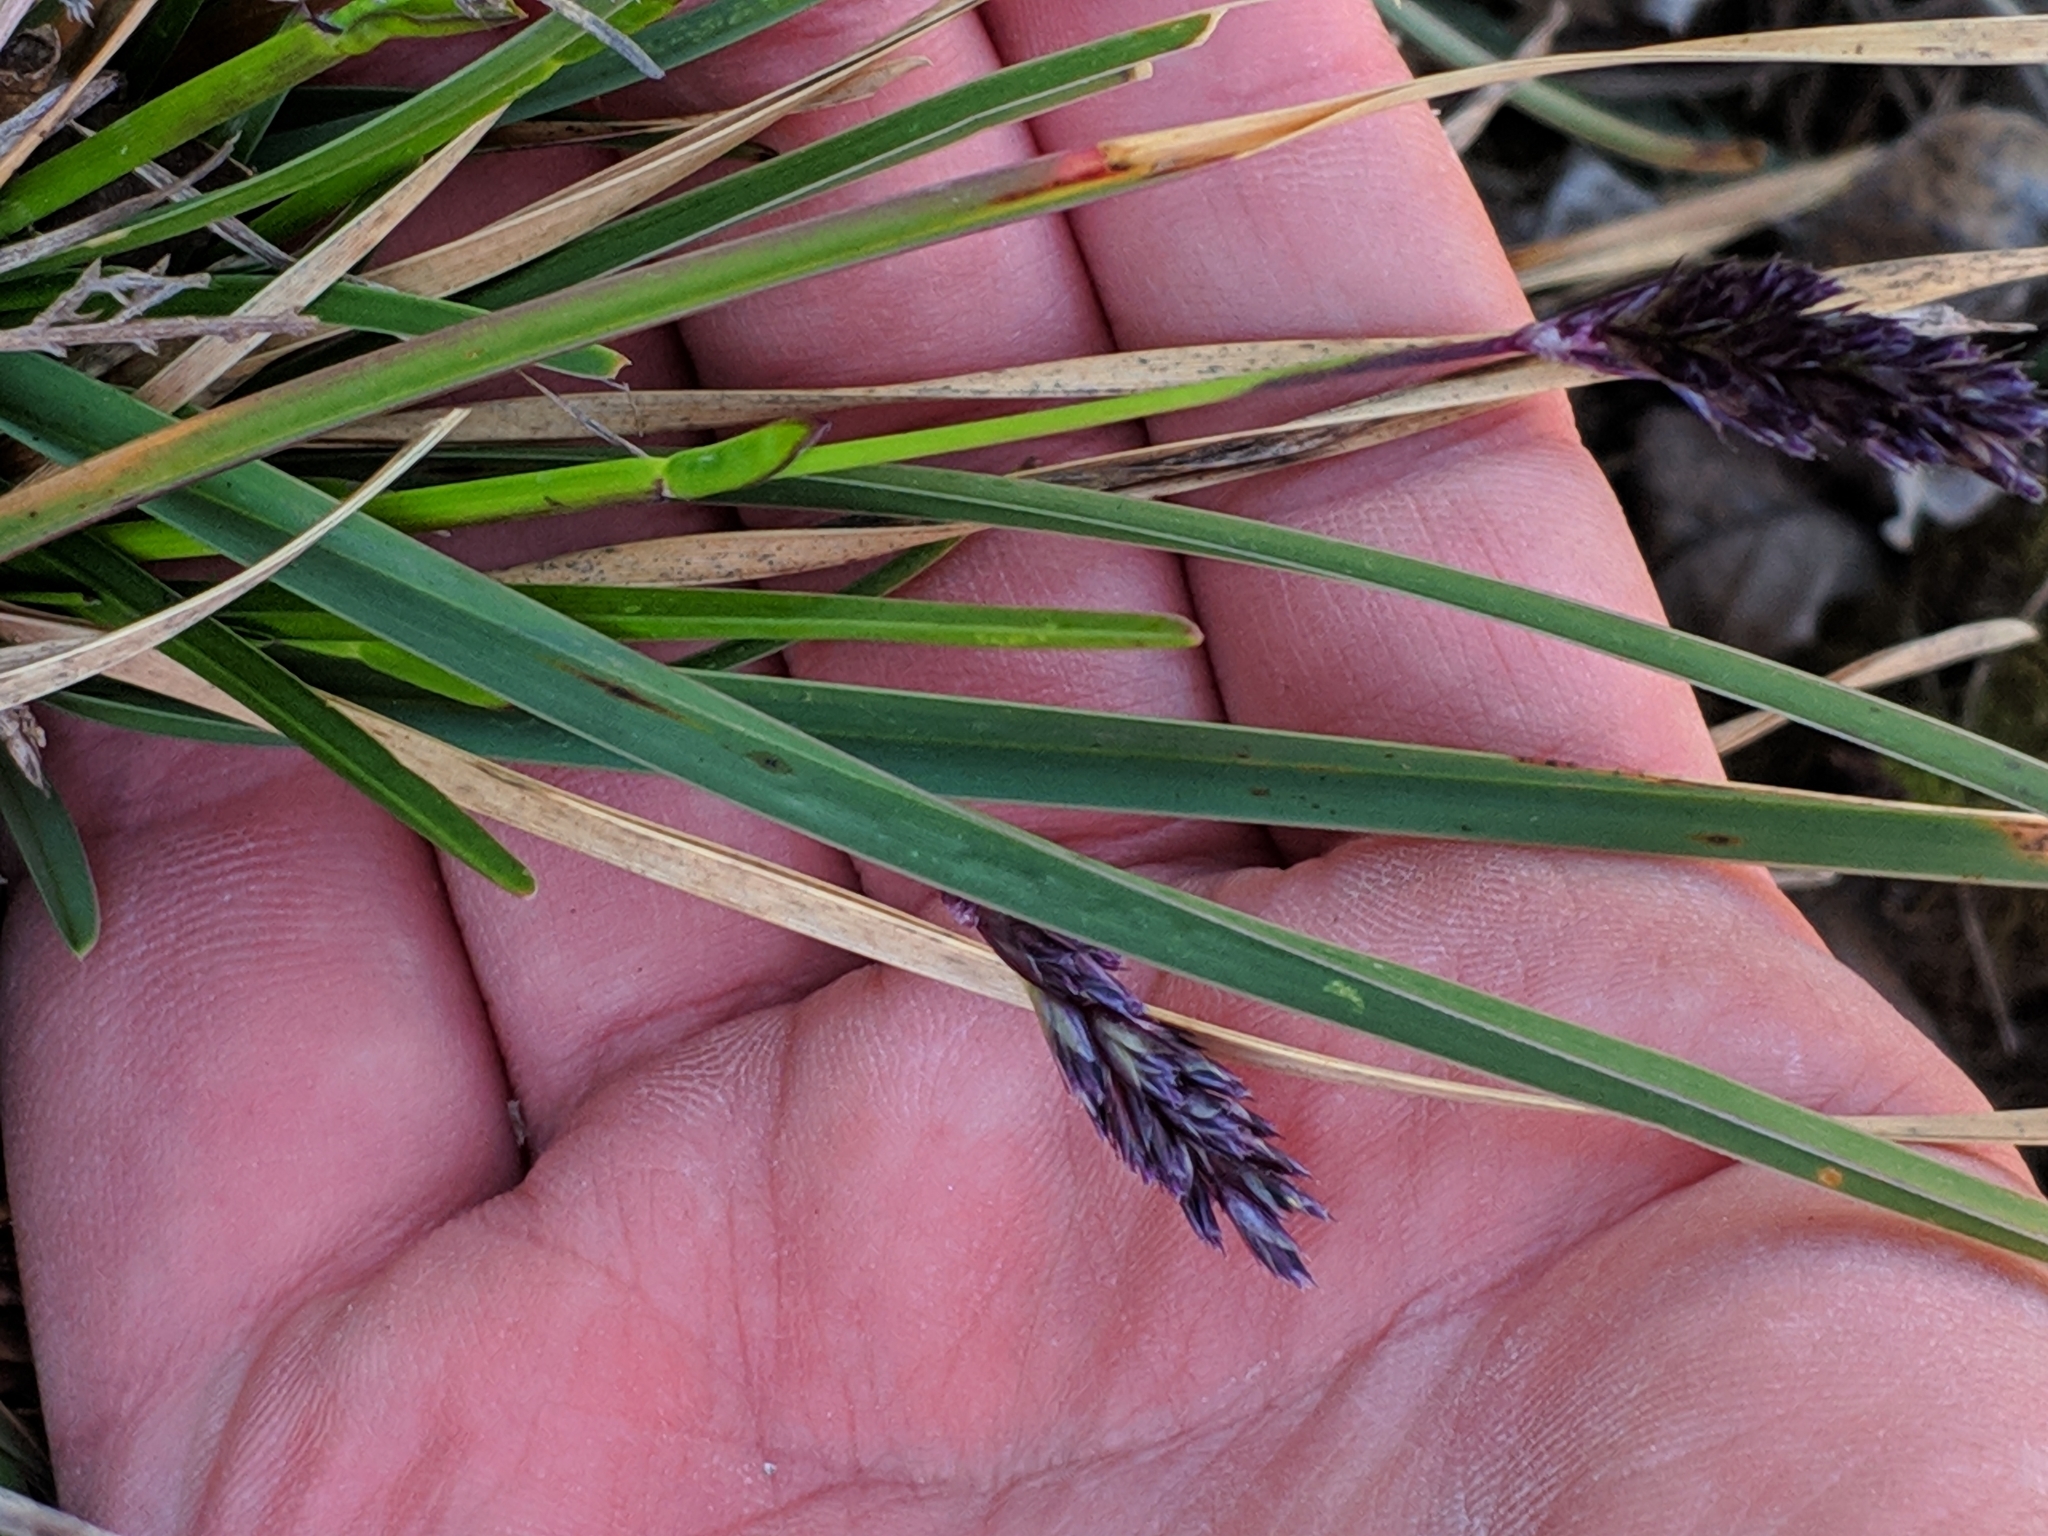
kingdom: Plantae
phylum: Tracheophyta
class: Liliopsida
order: Poales
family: Poaceae
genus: Sesleria
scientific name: Sesleria caerulea
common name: Blue moor-grass
